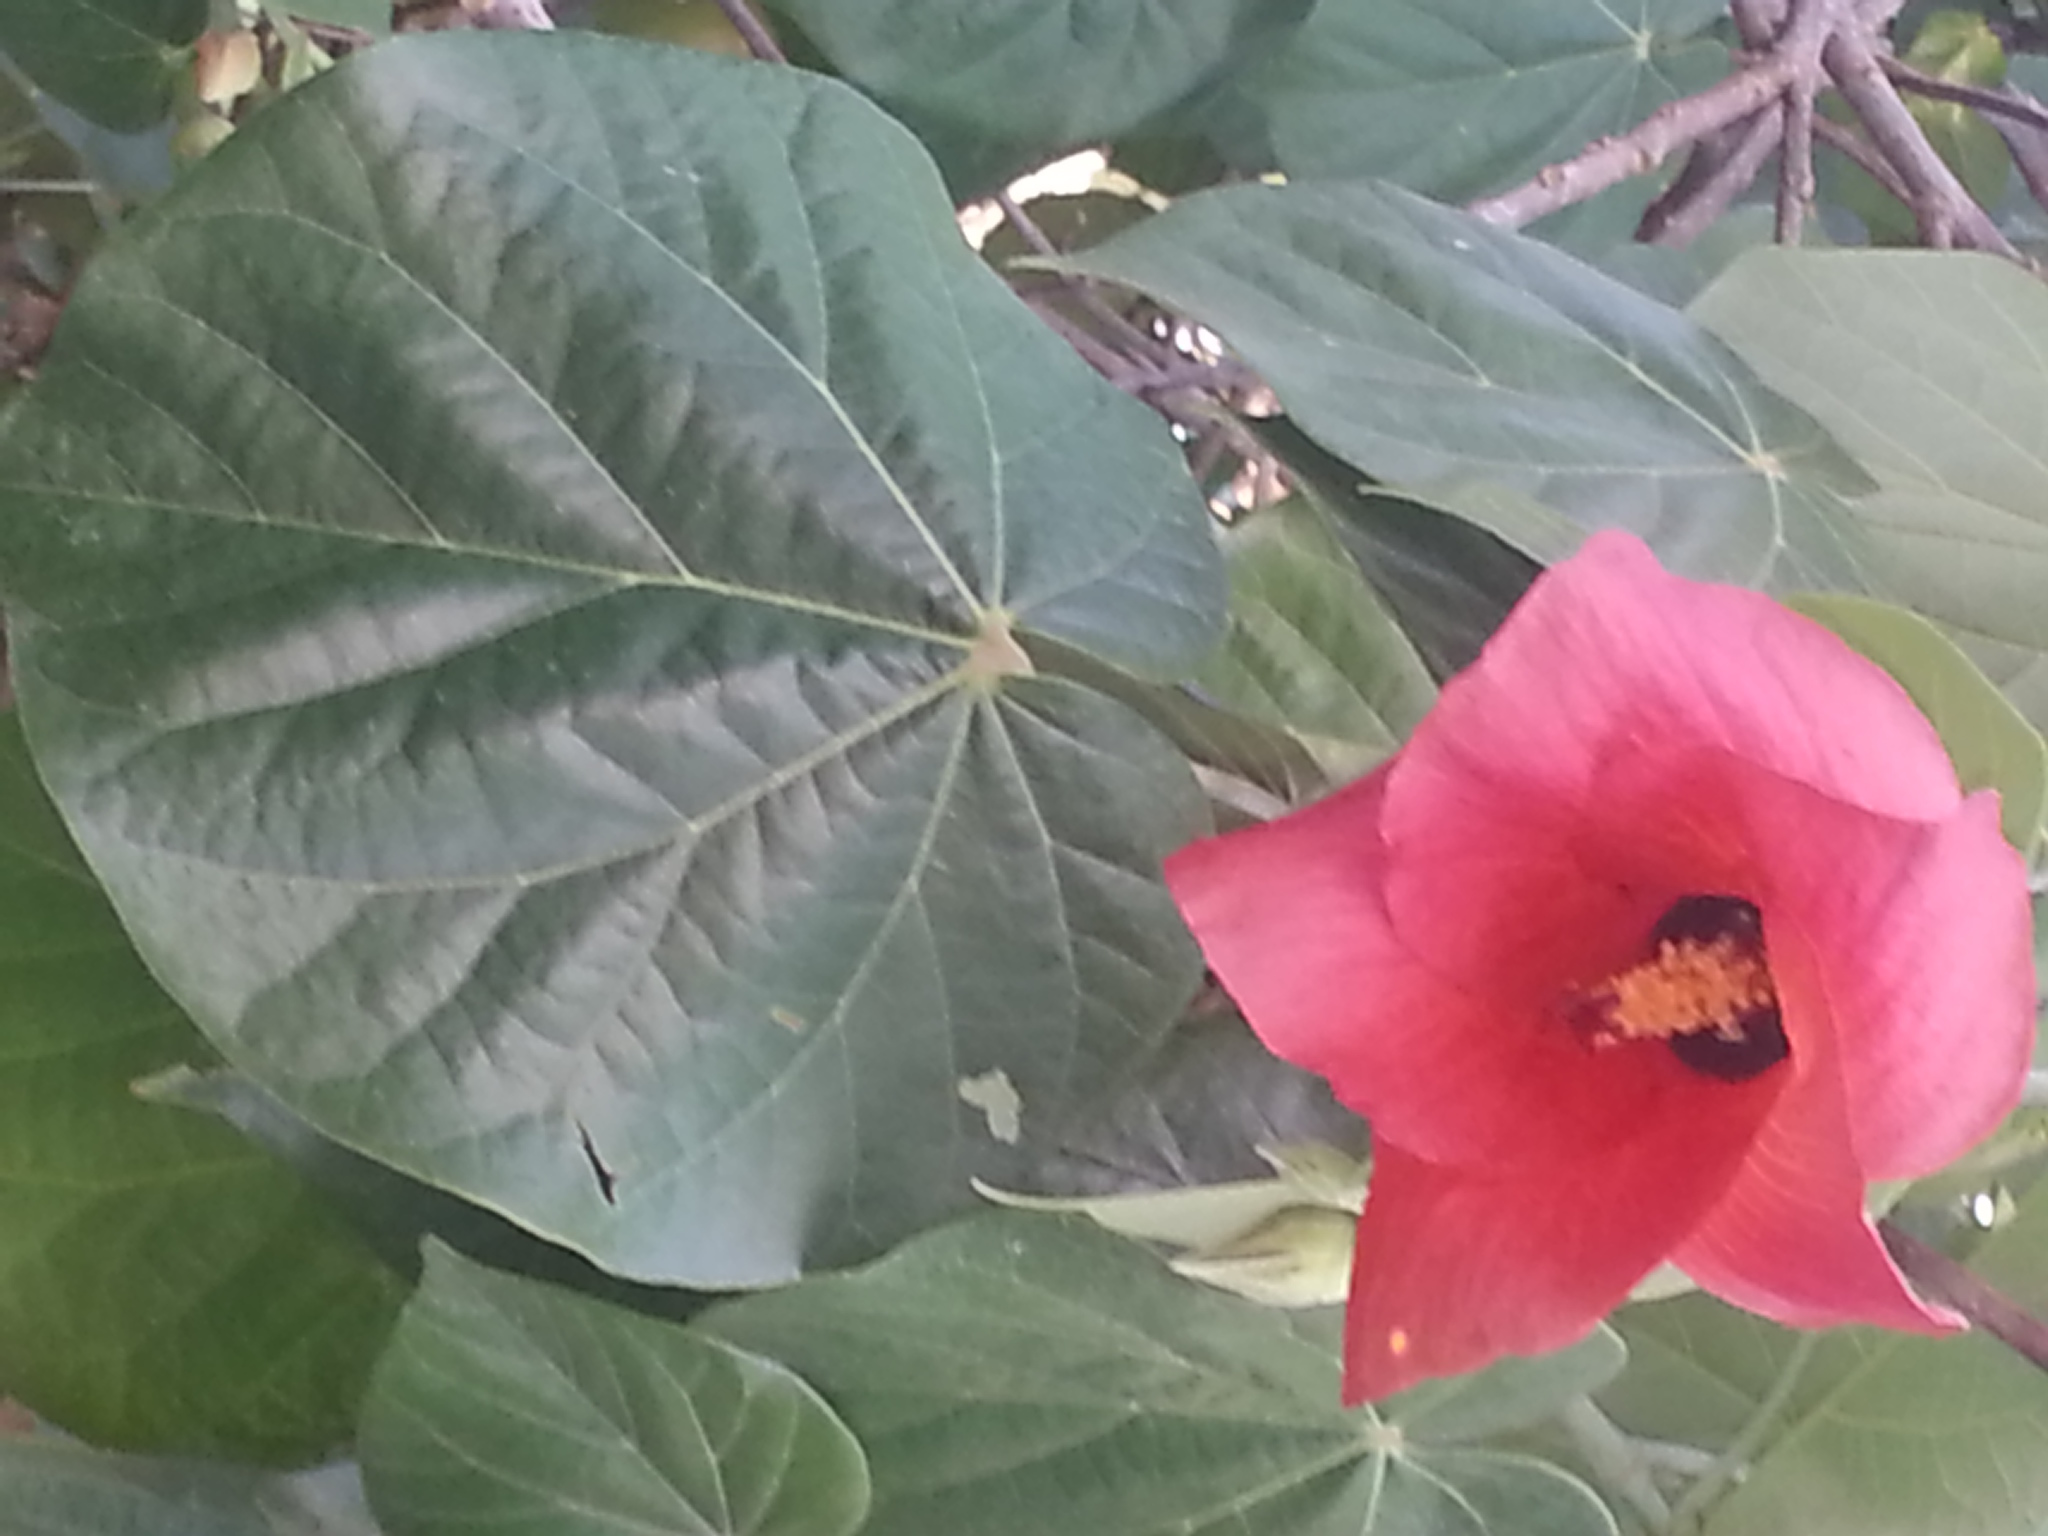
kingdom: Plantae
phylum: Tracheophyta
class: Magnoliopsida
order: Malvales
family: Malvaceae
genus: Talipariti
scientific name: Talipariti tiliaceum
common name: Sea hibiscus
